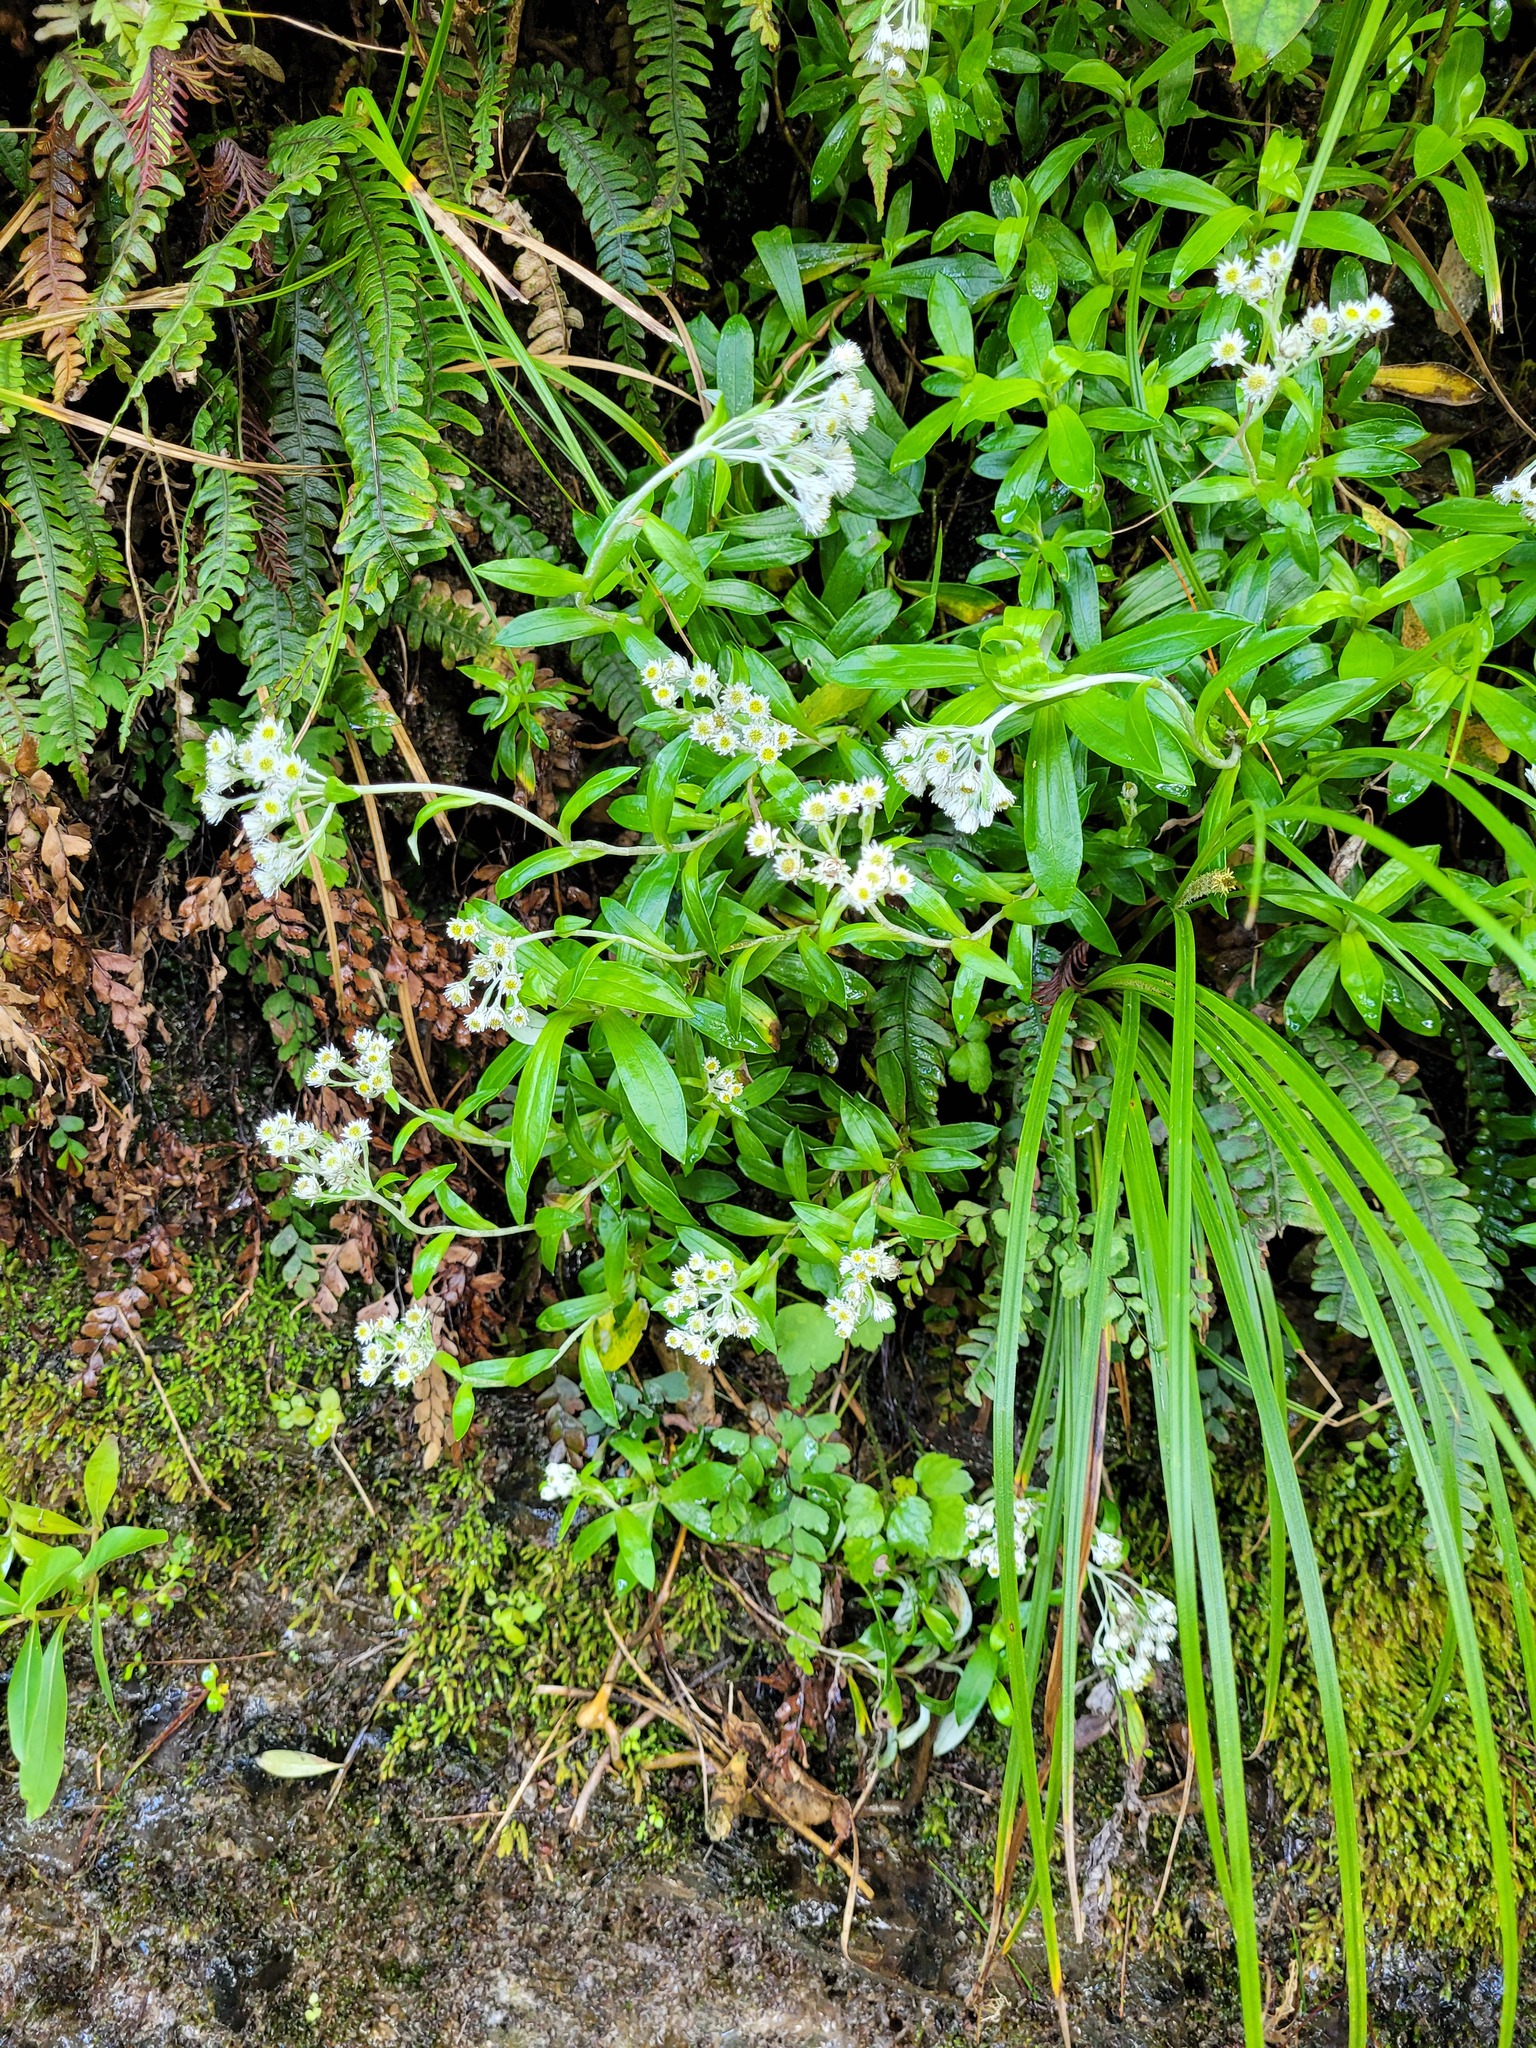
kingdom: Plantae
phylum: Tracheophyta
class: Magnoliopsida
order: Asterales
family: Asteraceae
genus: Anaphalioides
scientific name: Anaphalioides trinervis
